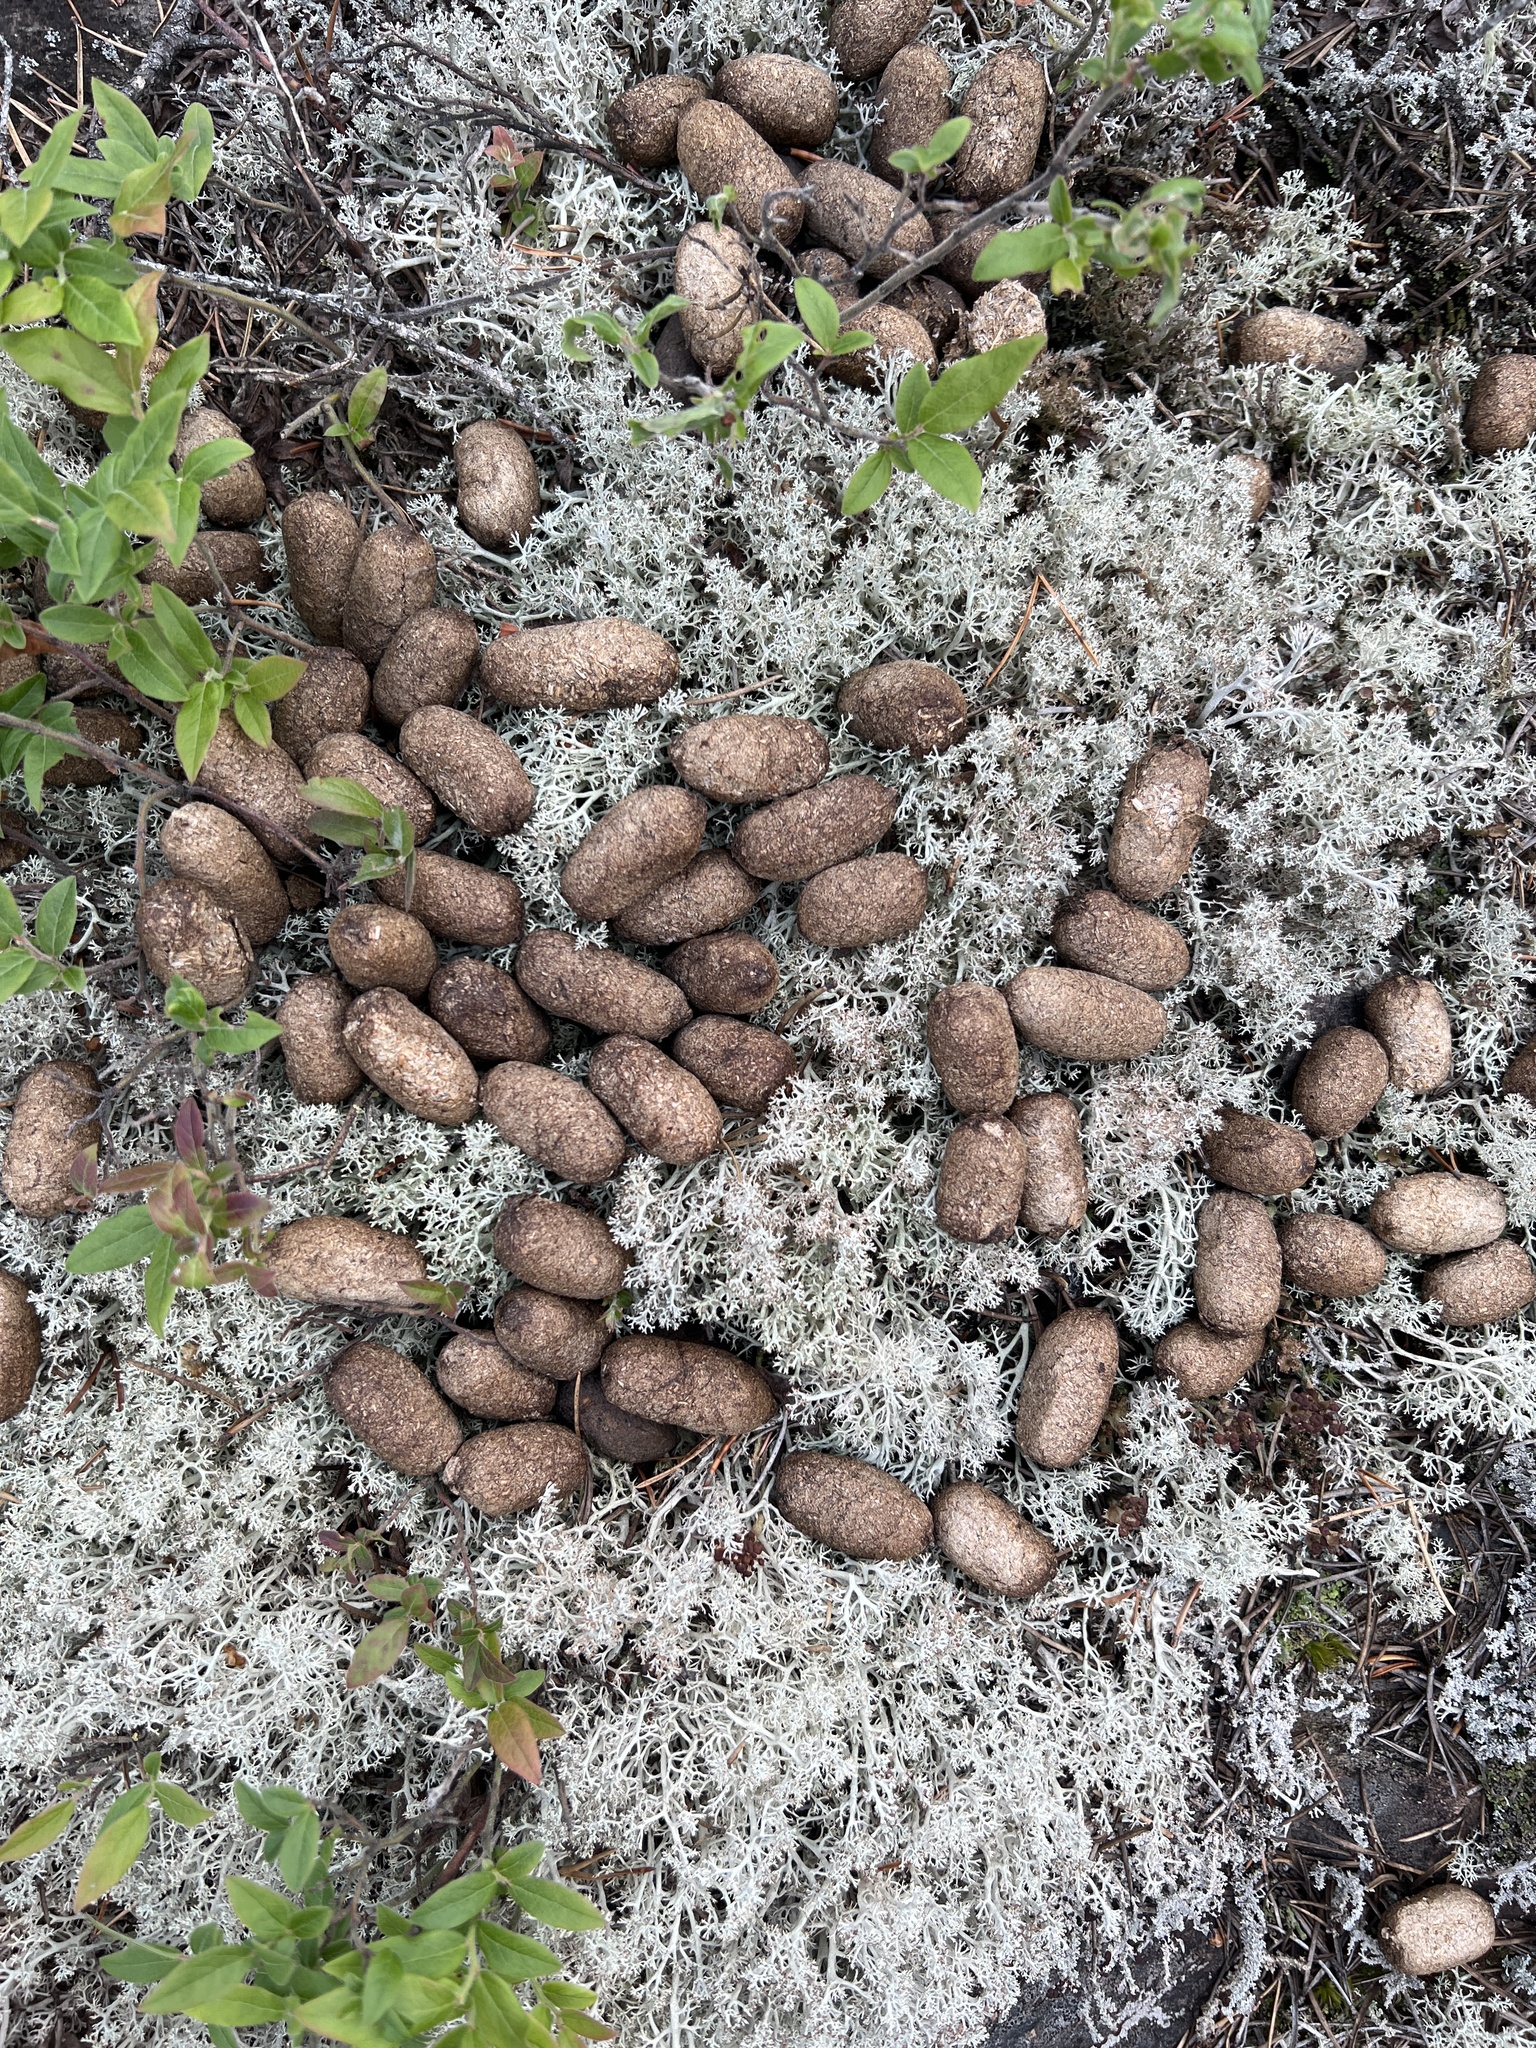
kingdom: Animalia
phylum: Chordata
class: Mammalia
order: Artiodactyla
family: Cervidae
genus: Alces
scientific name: Alces alces
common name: Moose
